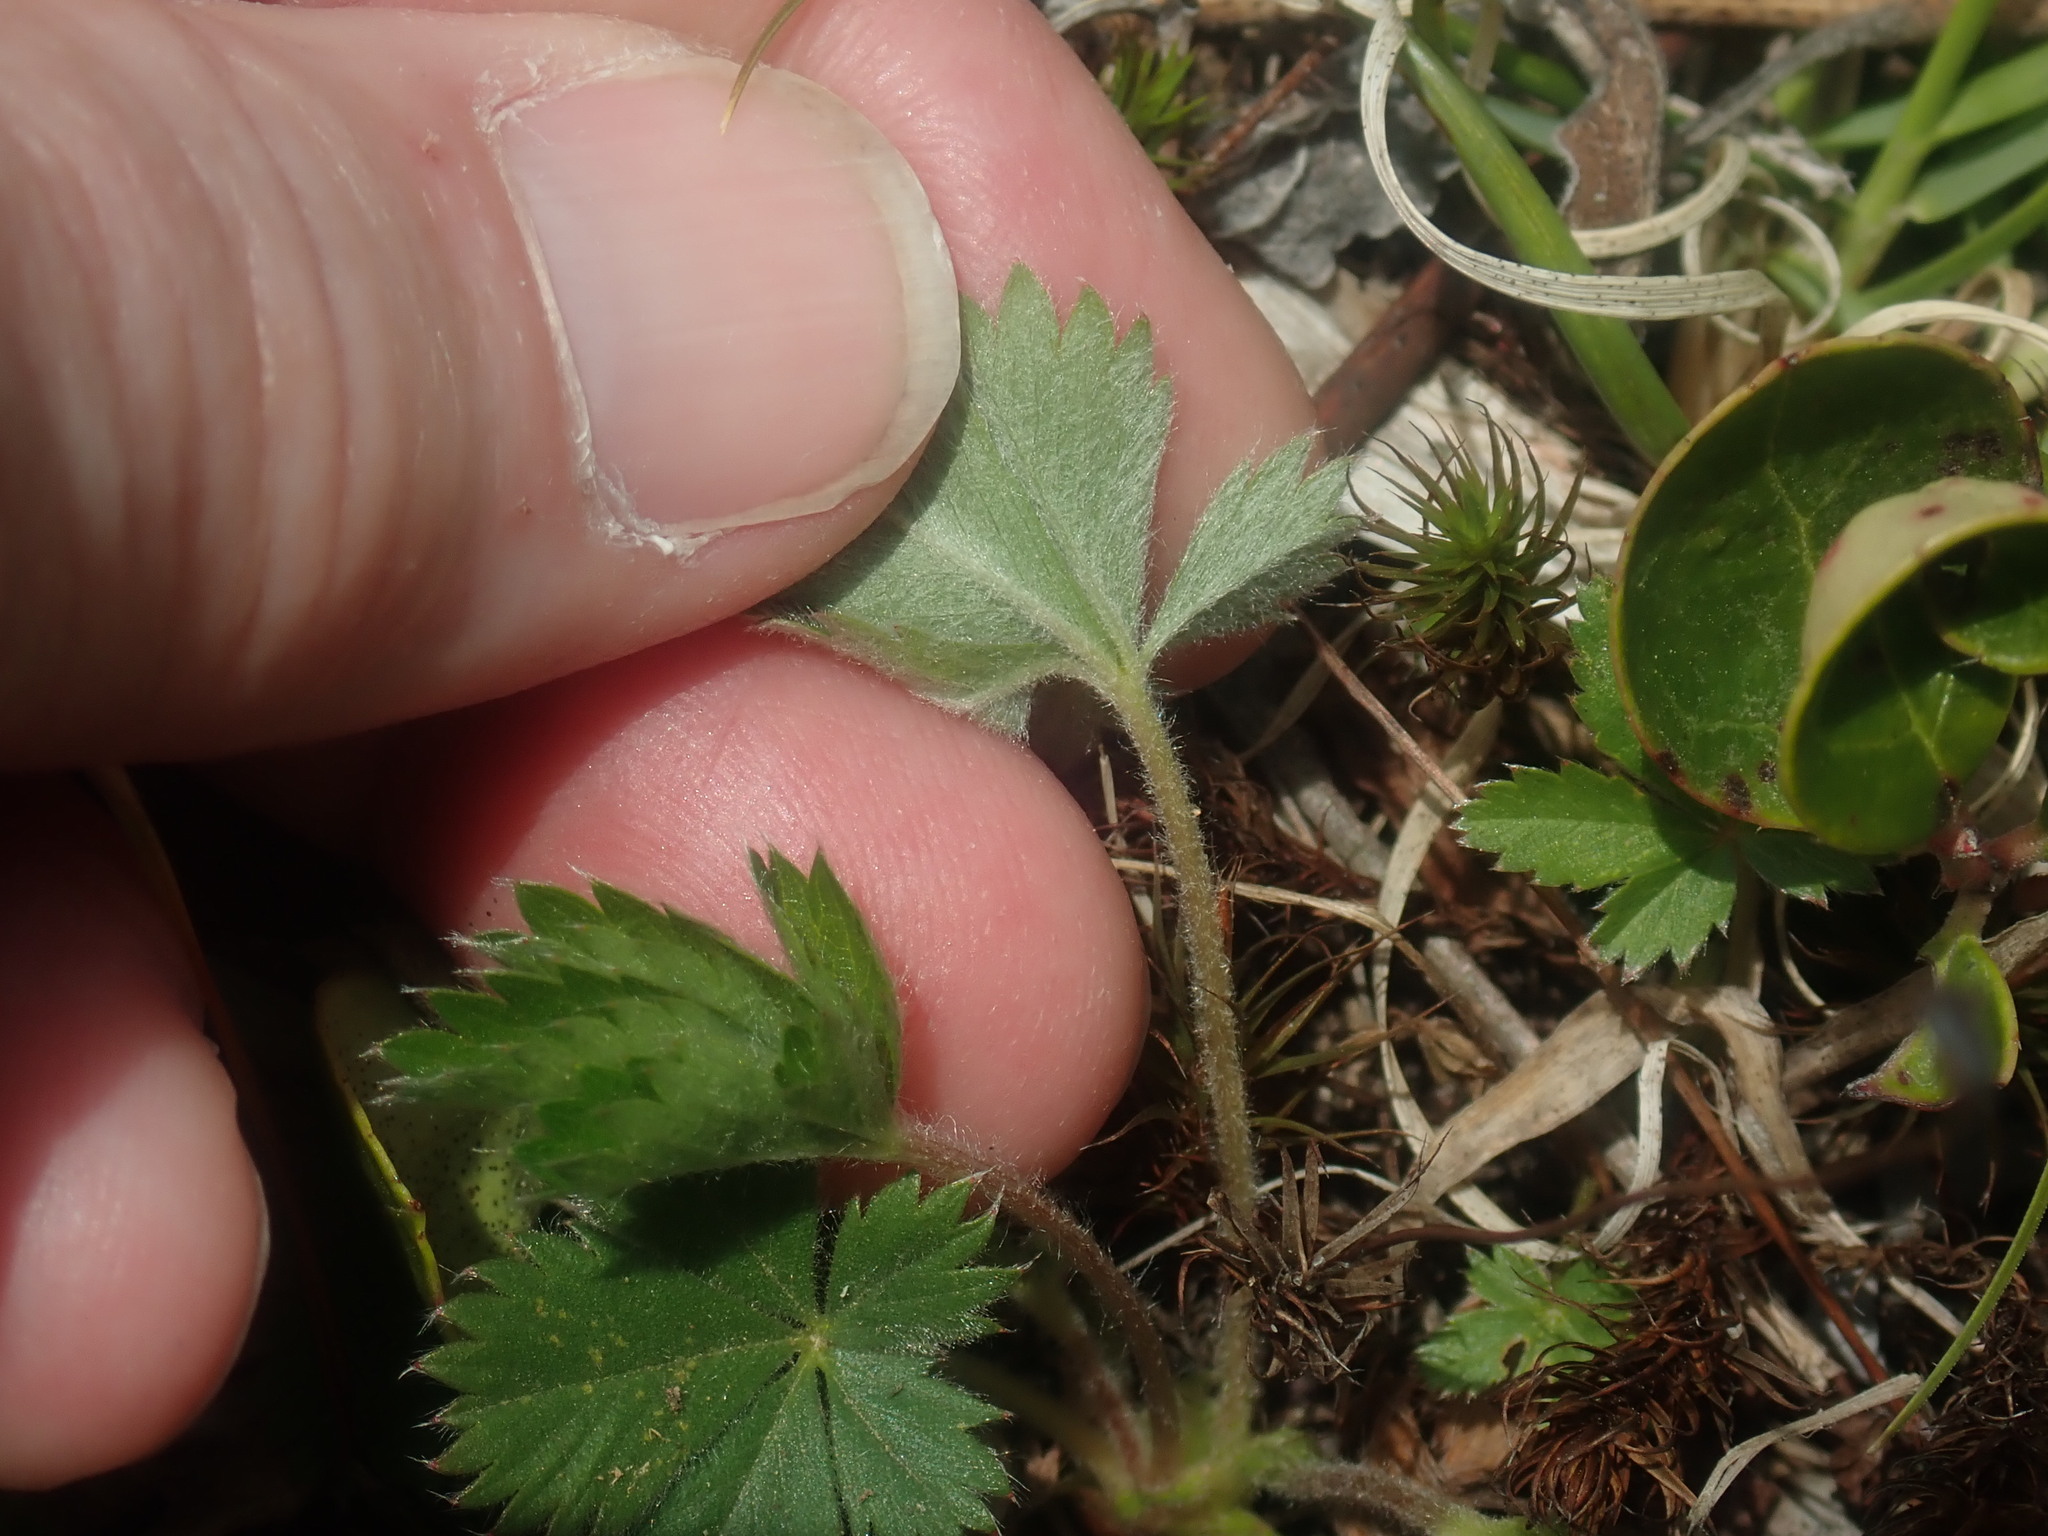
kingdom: Plantae
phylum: Tracheophyta
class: Magnoliopsida
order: Rosales
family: Rosaceae
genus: Potentilla
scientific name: Potentilla canadensis
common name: Canada cinquefoil
